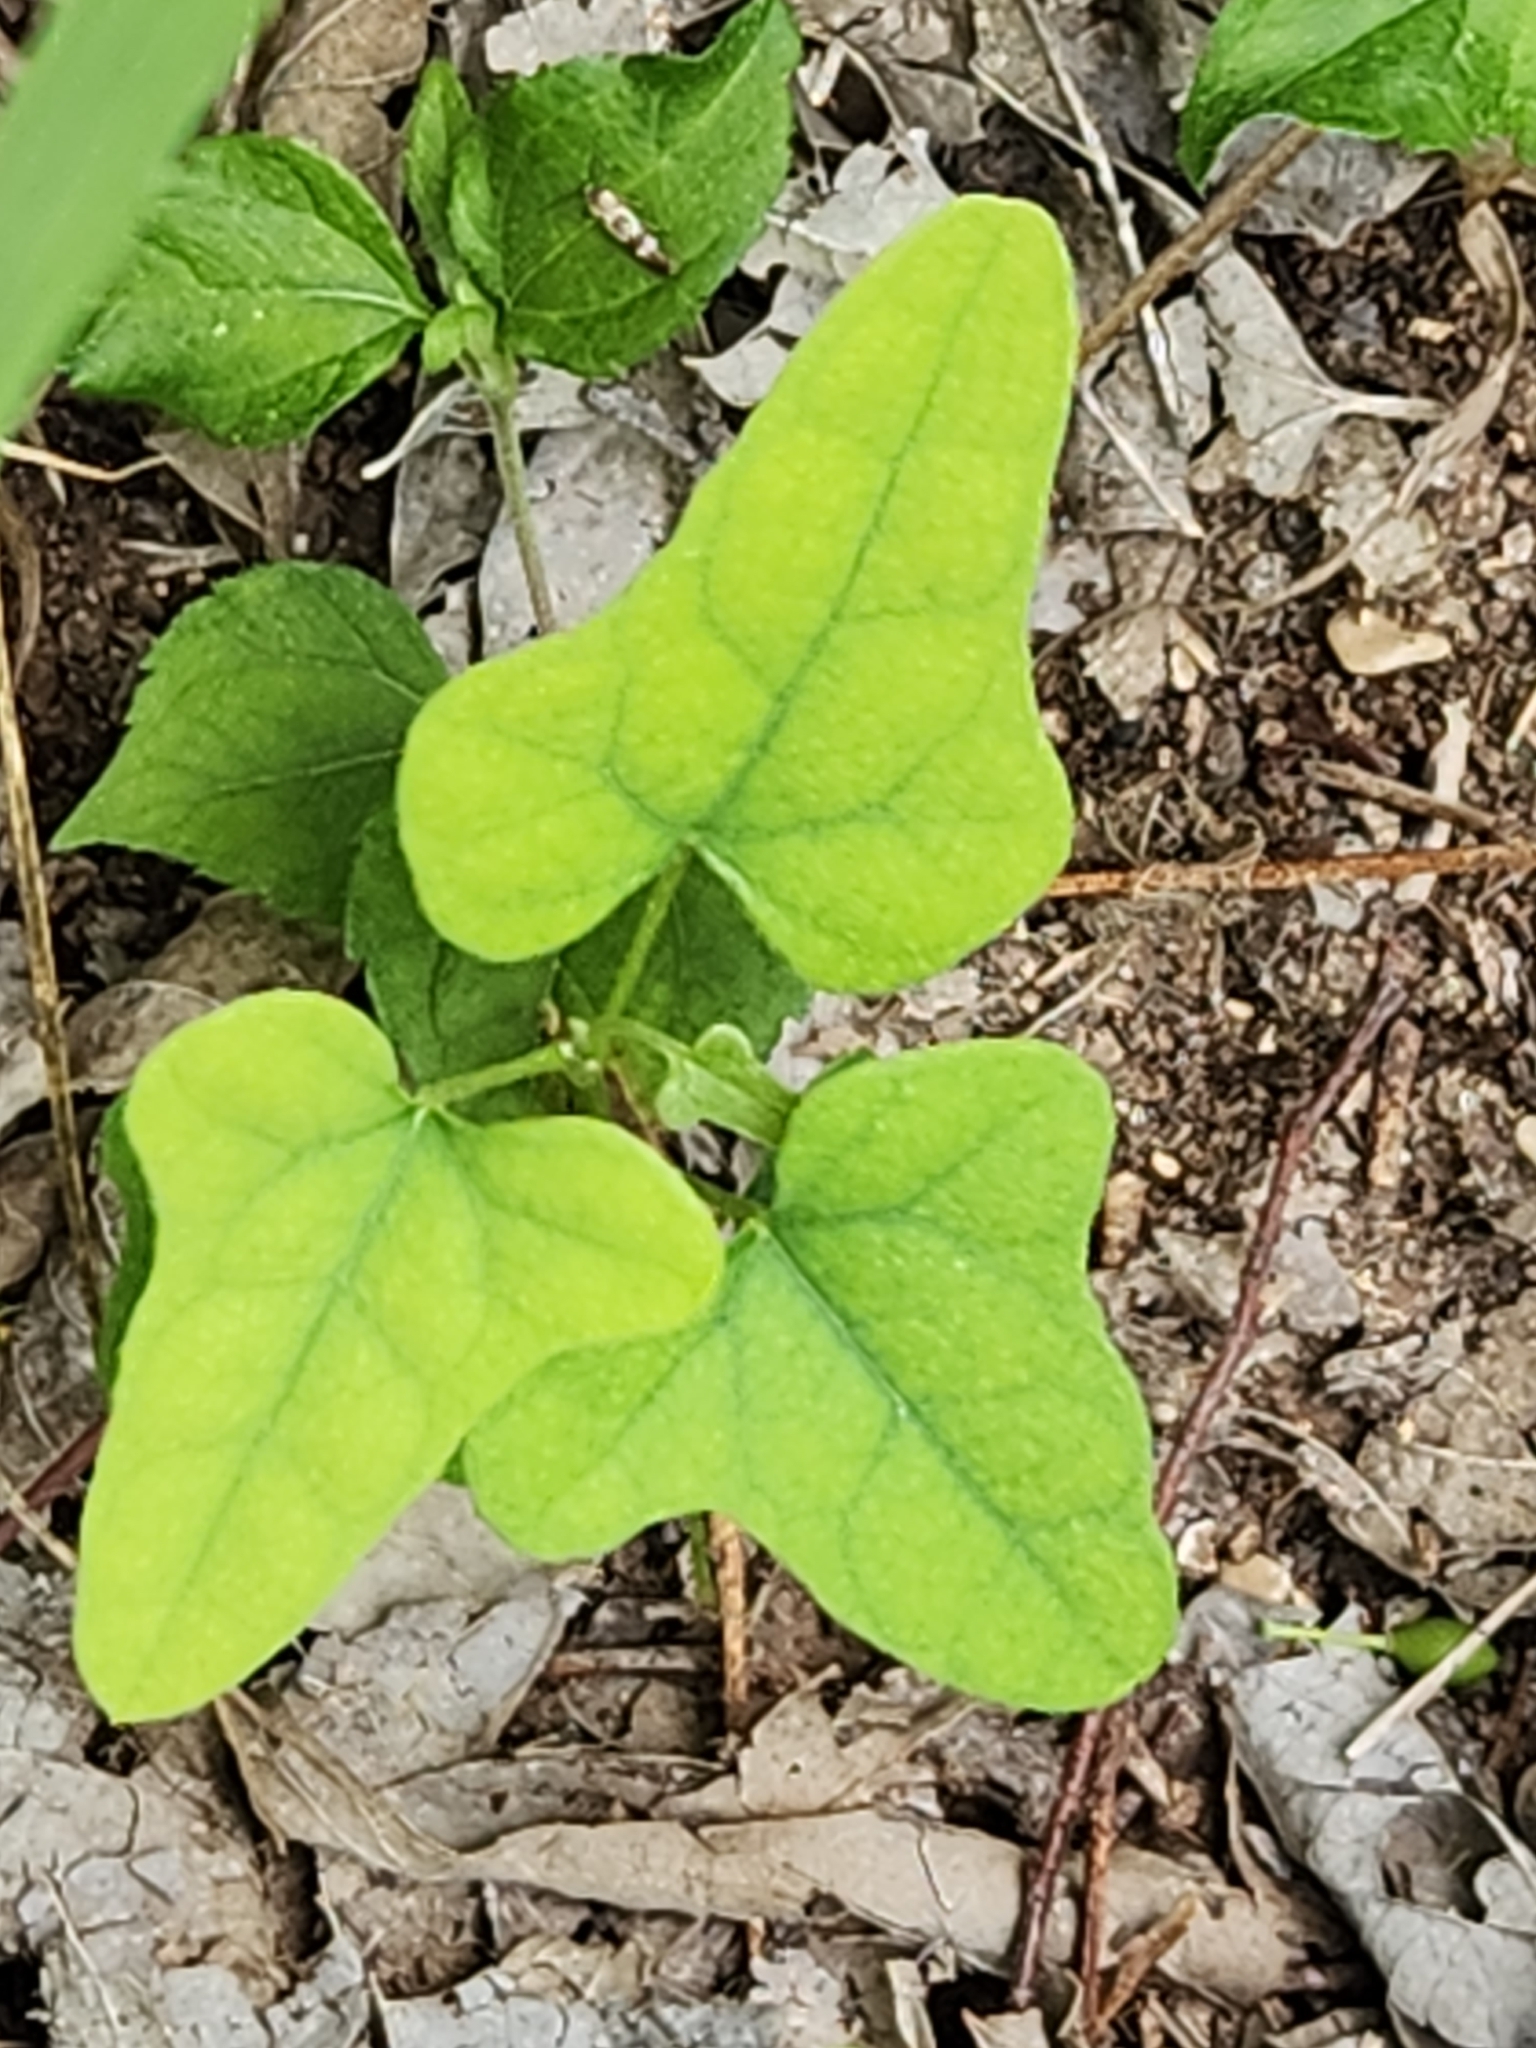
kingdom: Plantae
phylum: Tracheophyta
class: Magnoliopsida
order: Ranunculales
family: Menispermaceae
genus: Cocculus
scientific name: Cocculus carolinus
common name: Carolina moonseed
